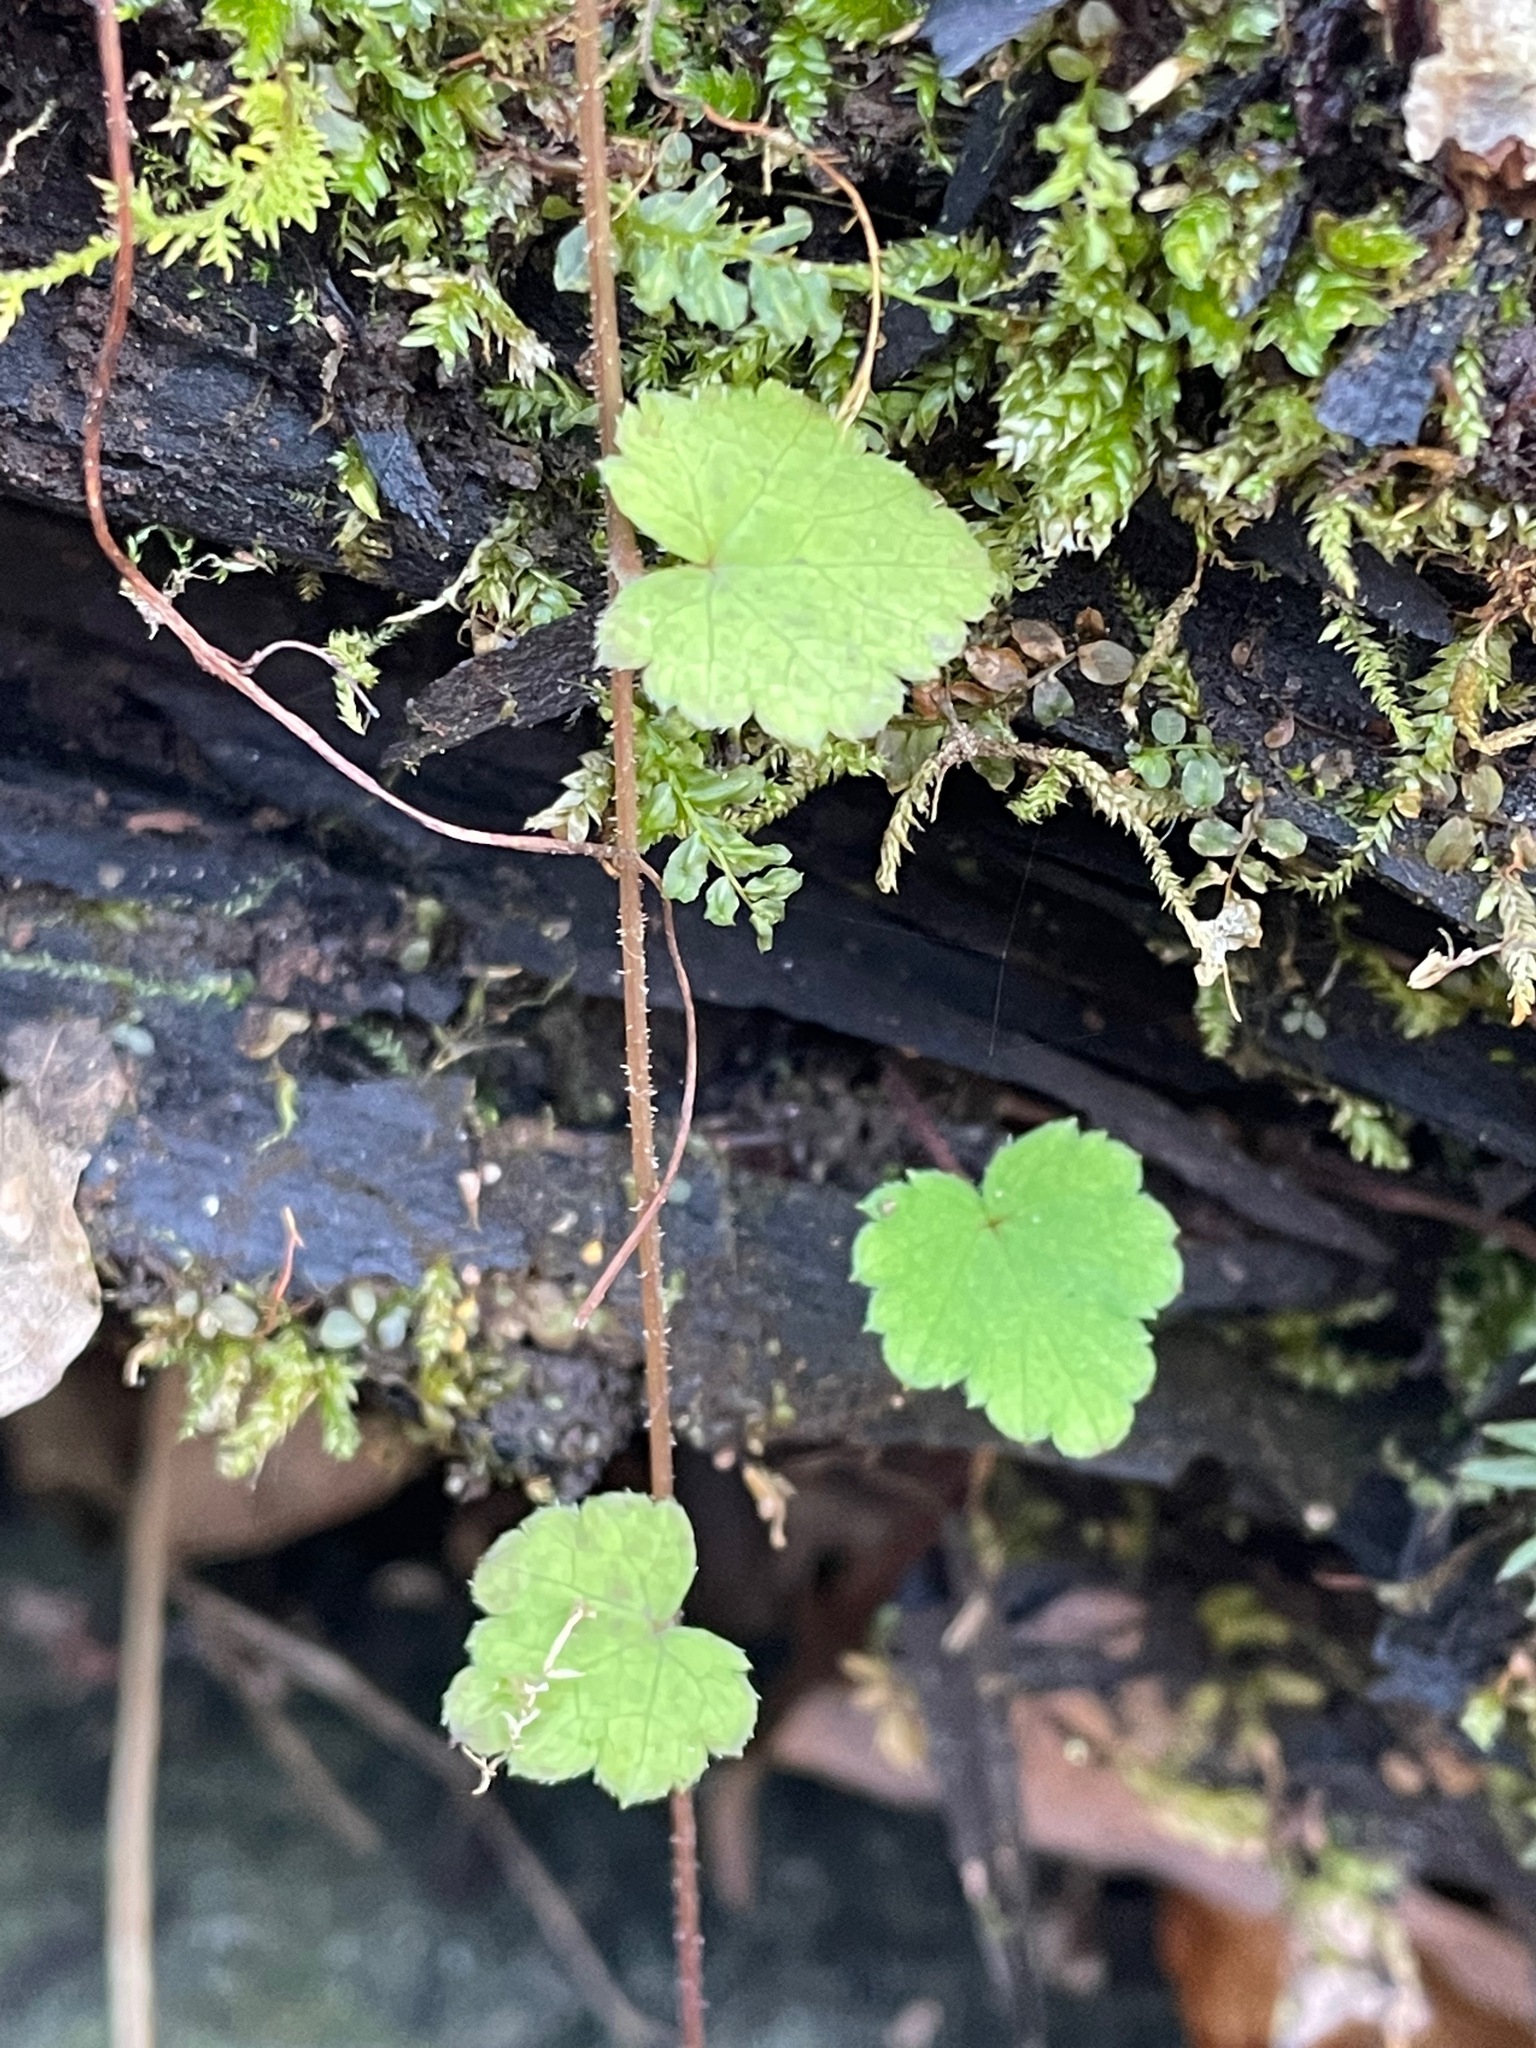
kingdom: Plantae
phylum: Tracheophyta
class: Magnoliopsida
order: Saxifragales
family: Saxifragaceae
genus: Tiarella
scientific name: Tiarella stolonifera
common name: Stoloniferous foamflower
